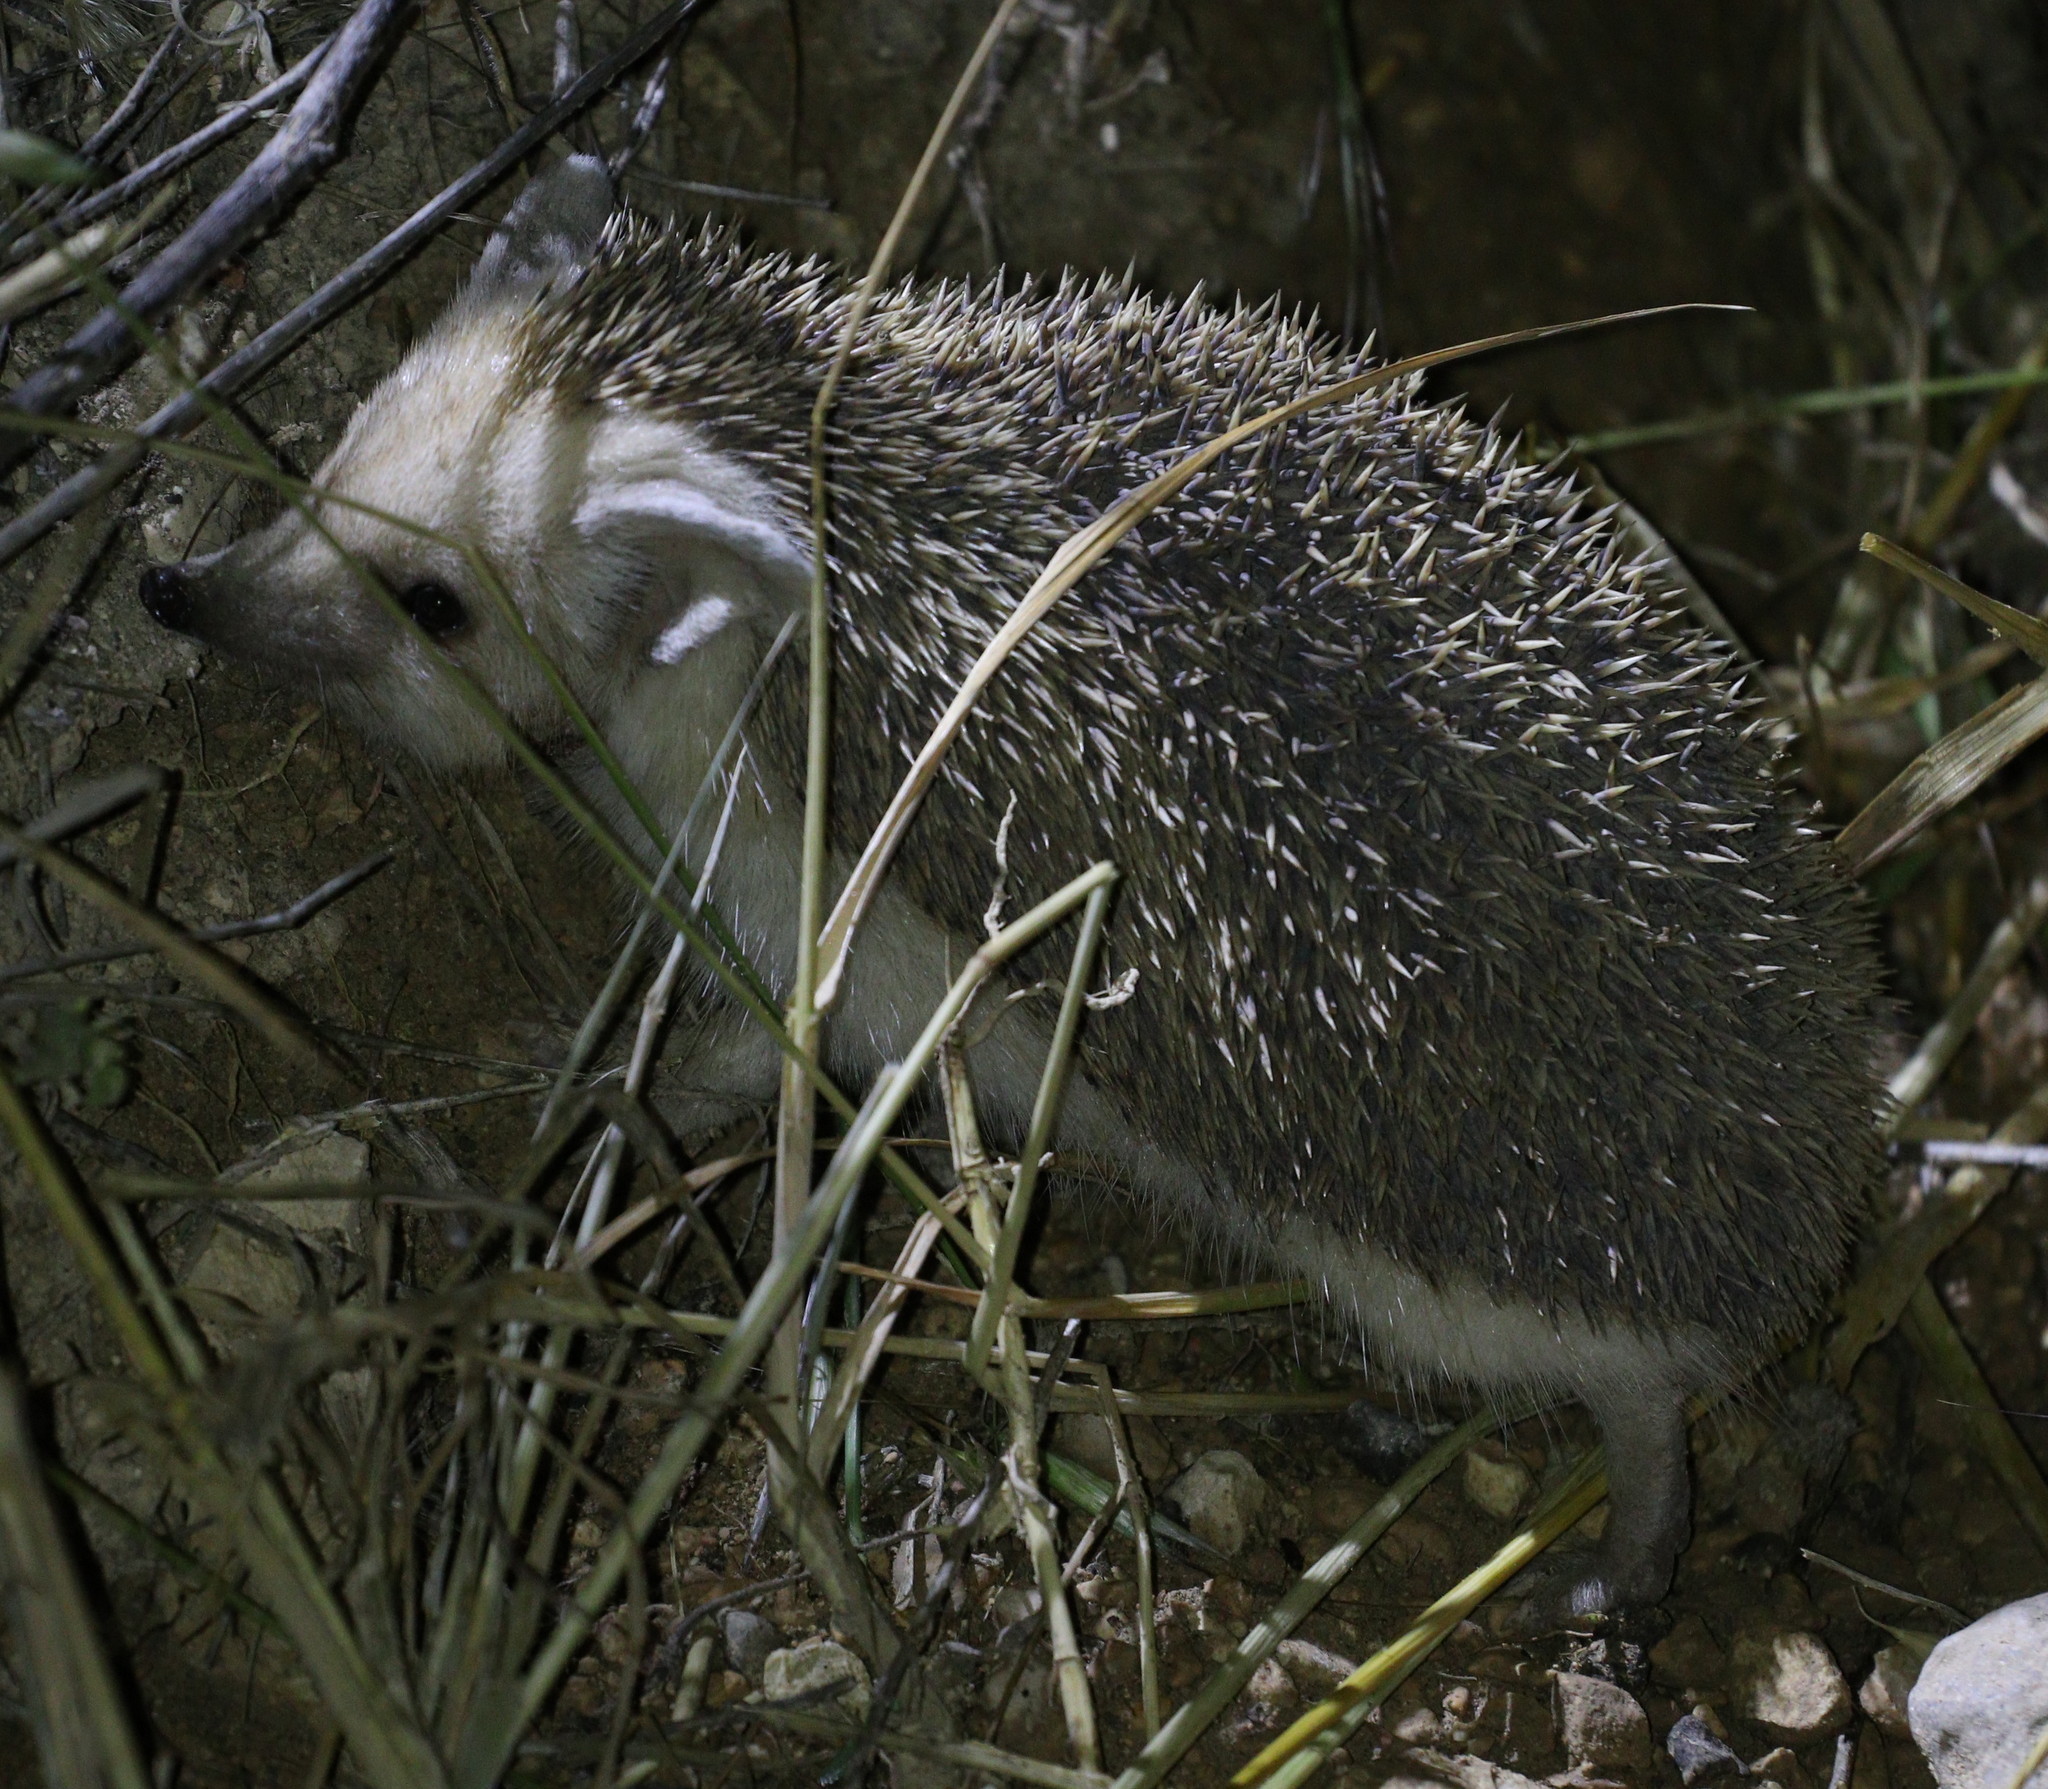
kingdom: Animalia
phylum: Chordata
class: Mammalia
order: Erinaceomorpha
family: Erinaceidae
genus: Hemiechinus
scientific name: Hemiechinus auritus
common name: Long-eared hedgehog
